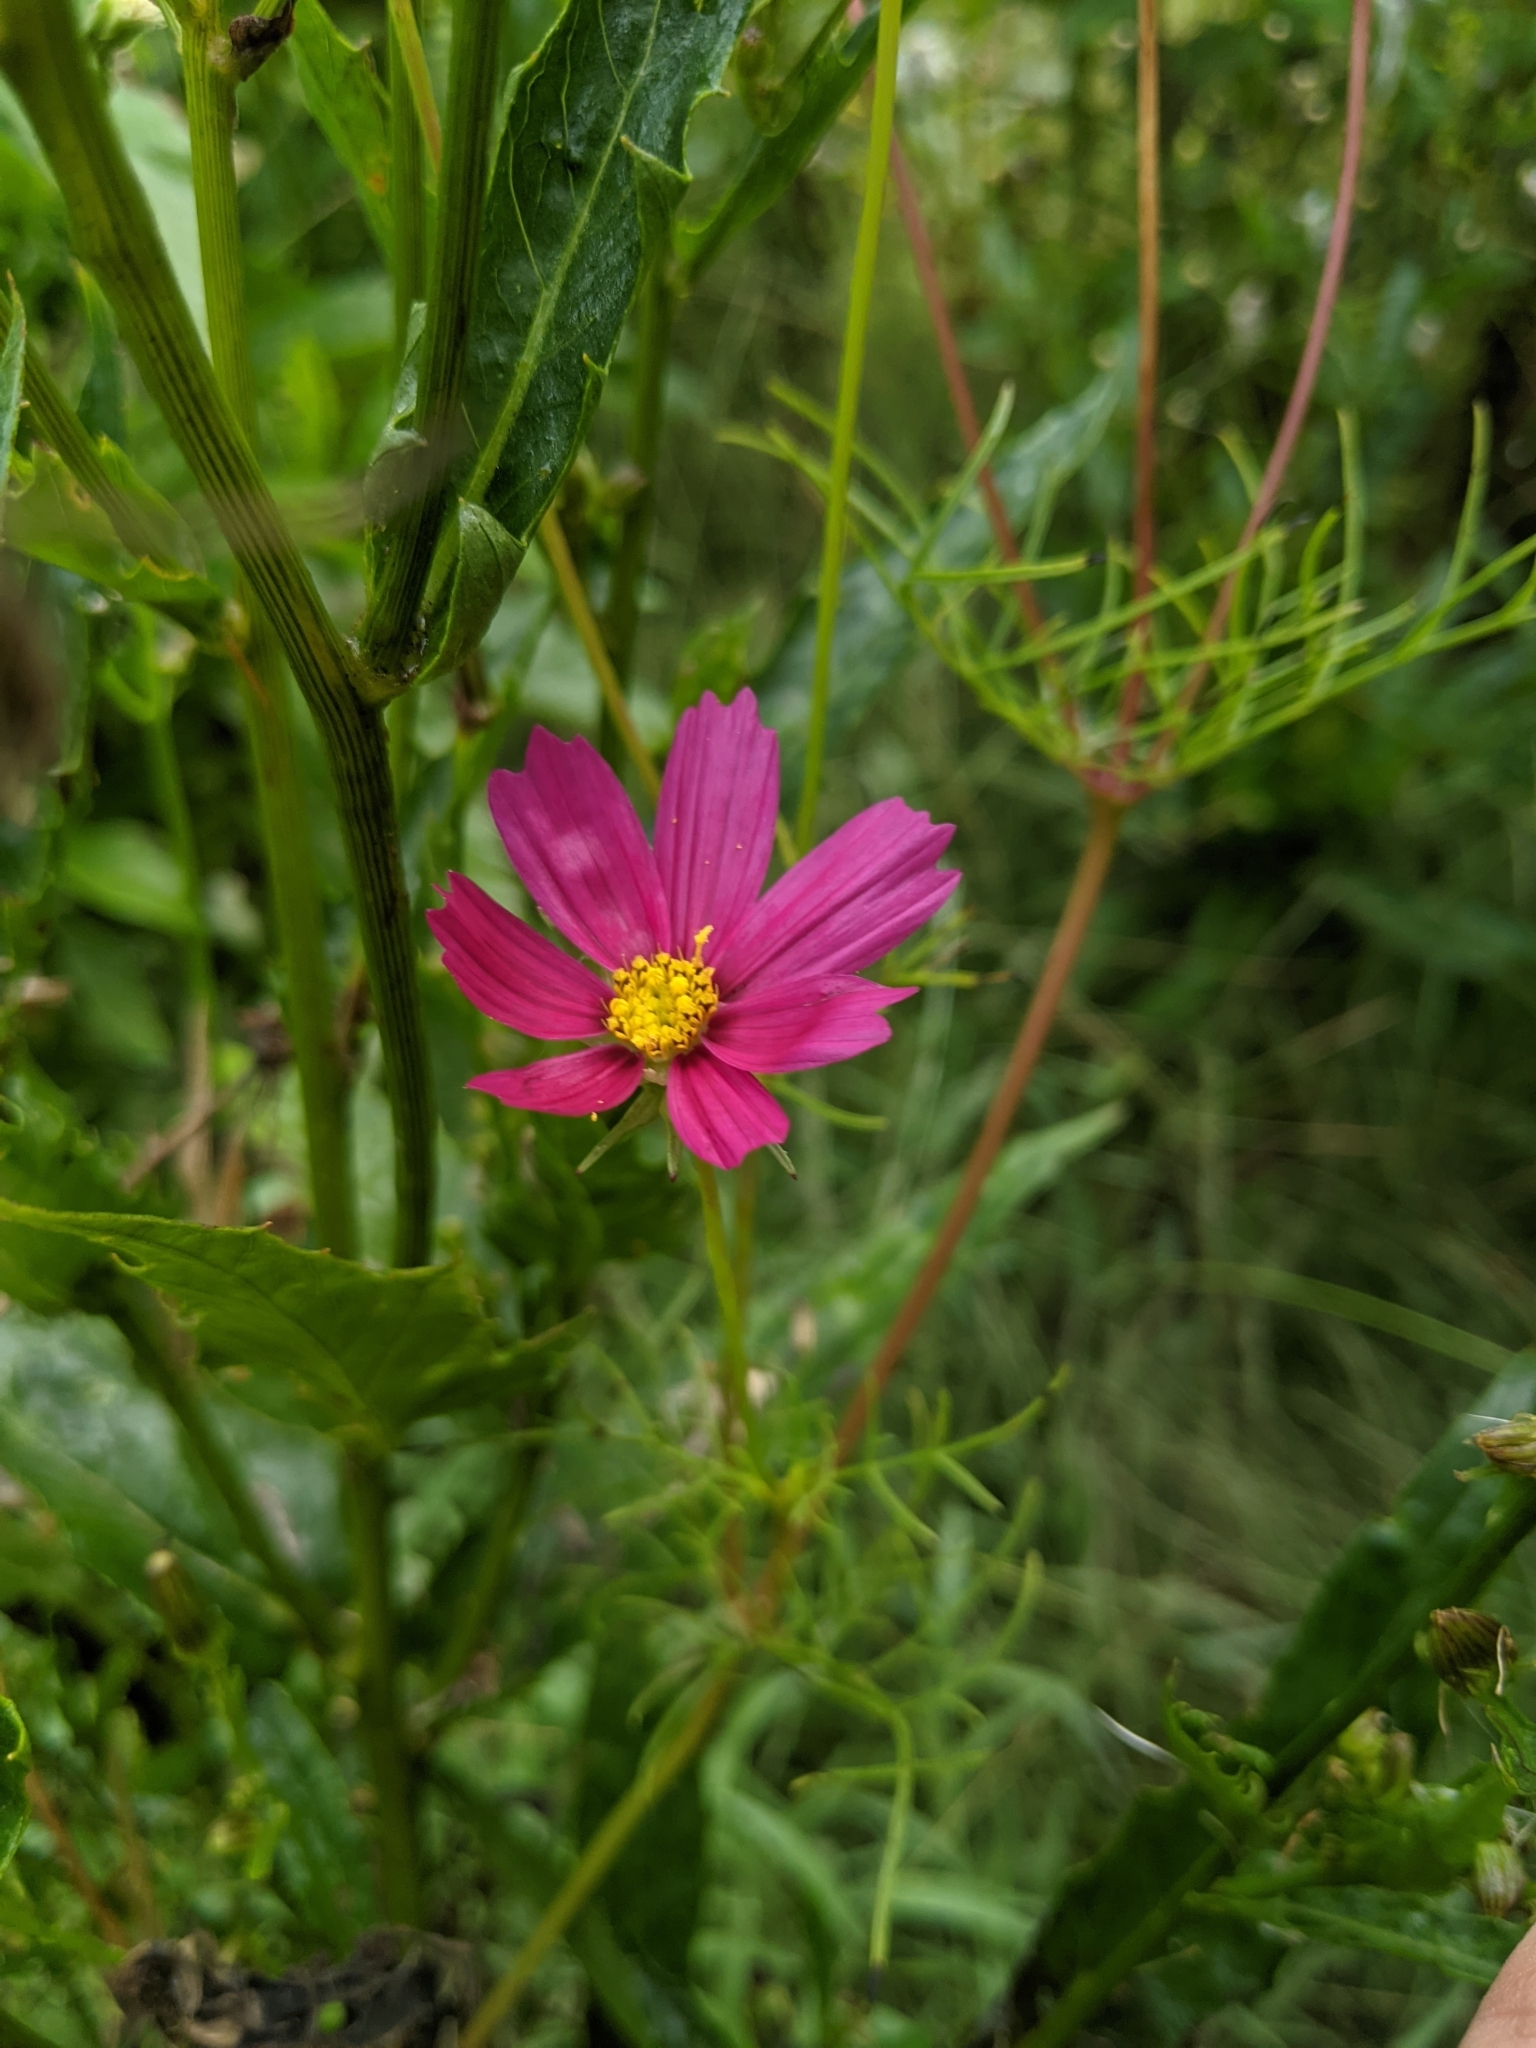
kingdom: Plantae
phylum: Tracheophyta
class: Magnoliopsida
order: Asterales
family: Asteraceae
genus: Cosmos
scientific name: Cosmos bipinnatus
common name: Garden cosmos
